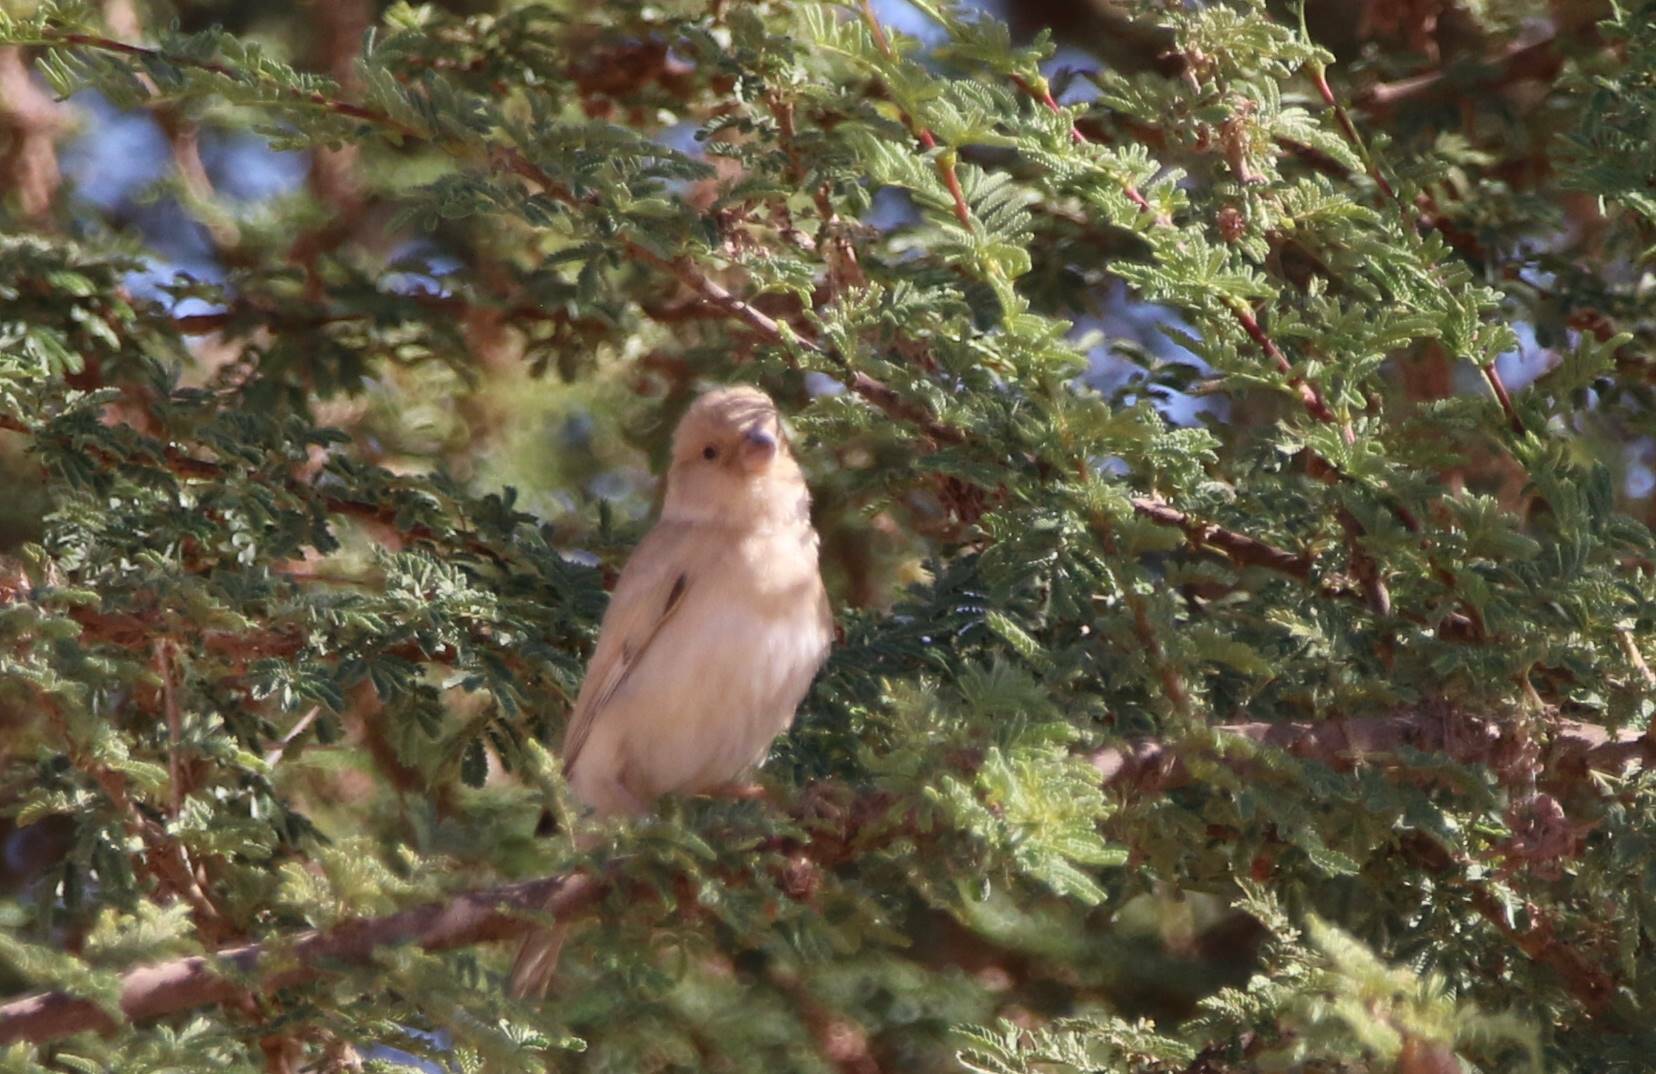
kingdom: Animalia
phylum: Chordata
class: Aves
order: Passeriformes
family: Passeridae
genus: Passer
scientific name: Passer simplex
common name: Desert sparrow
